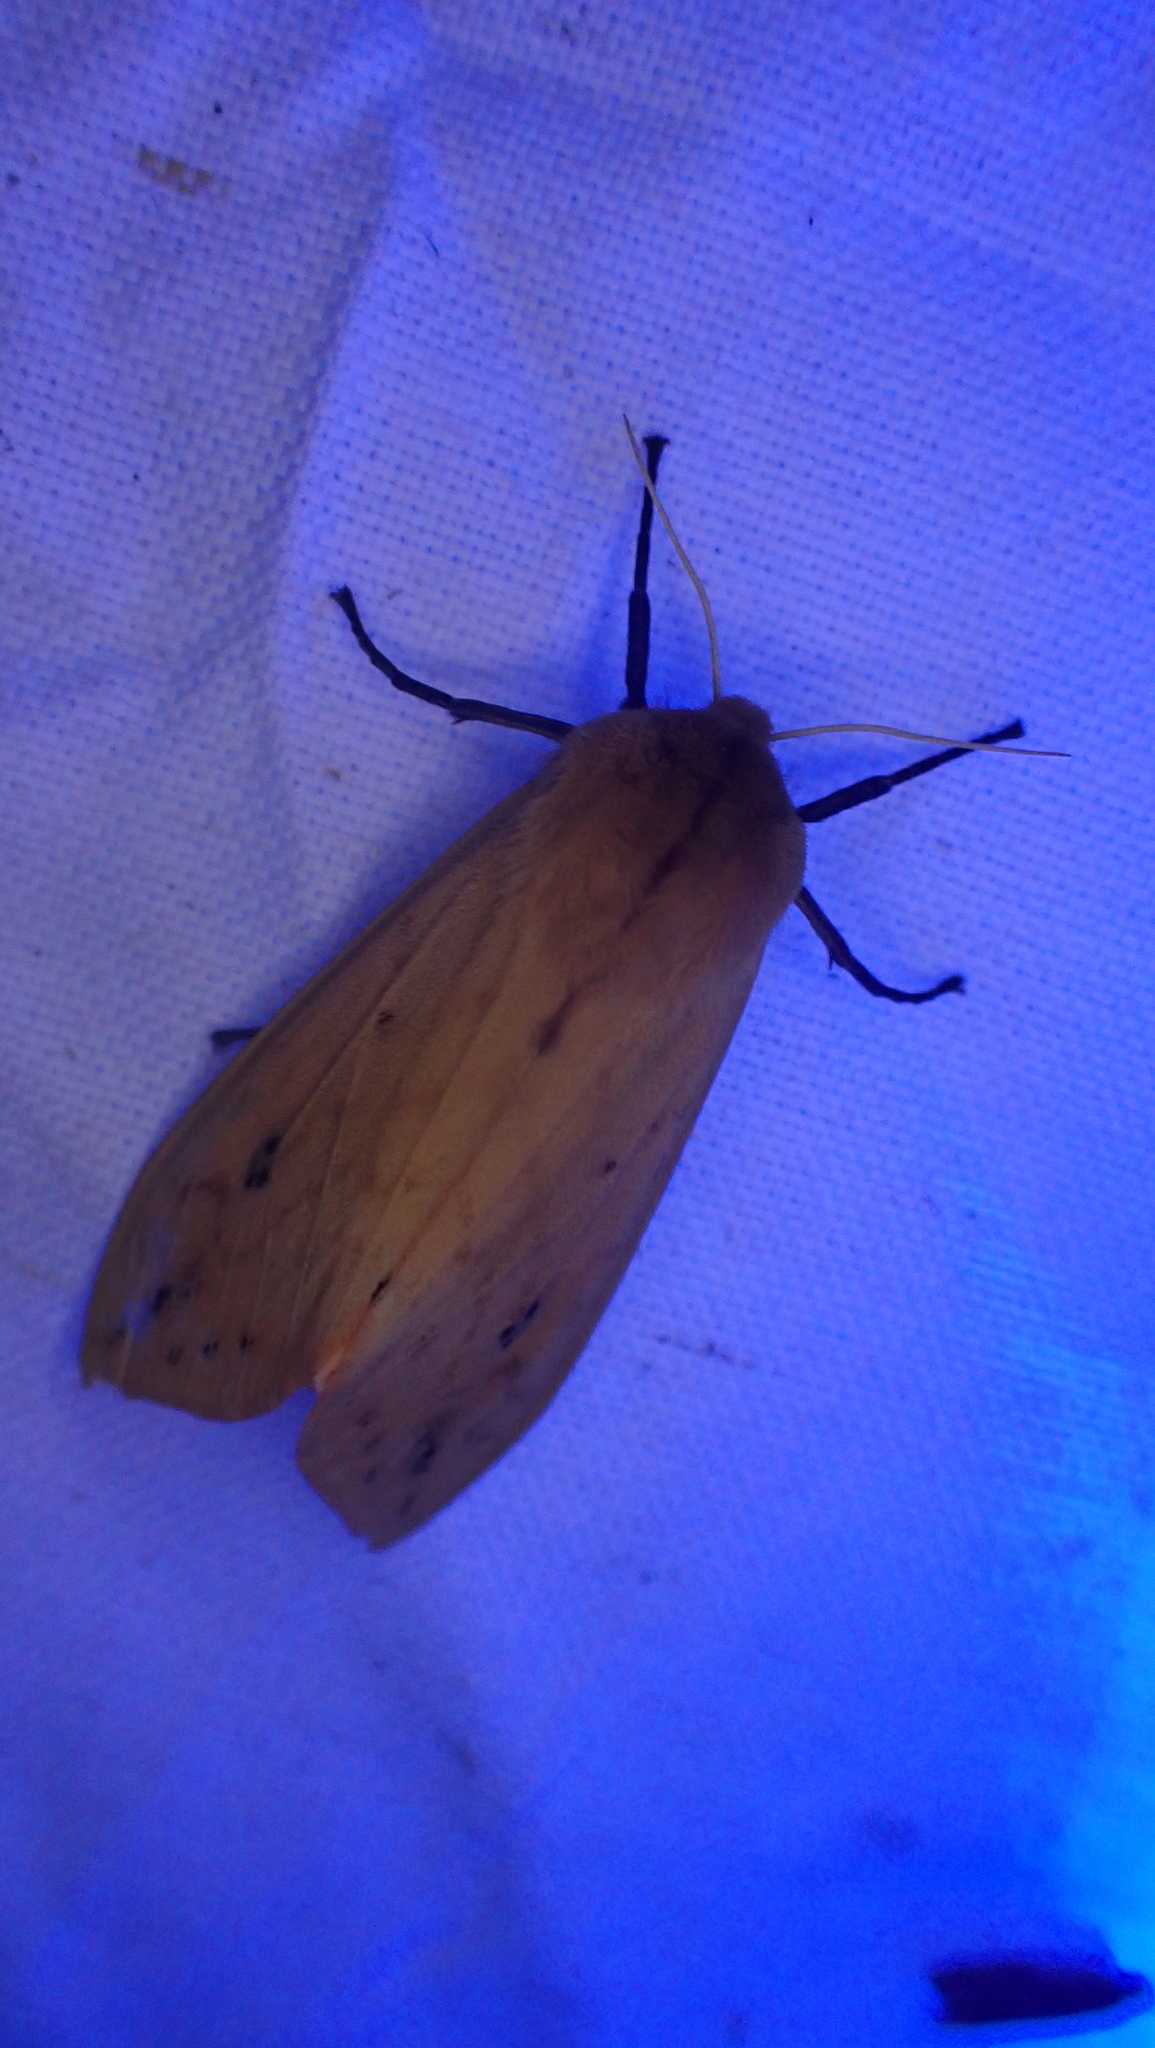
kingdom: Animalia
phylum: Arthropoda
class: Insecta
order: Lepidoptera
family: Erebidae
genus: Pyrrharctia
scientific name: Pyrrharctia isabella
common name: Isabella tiger moth
